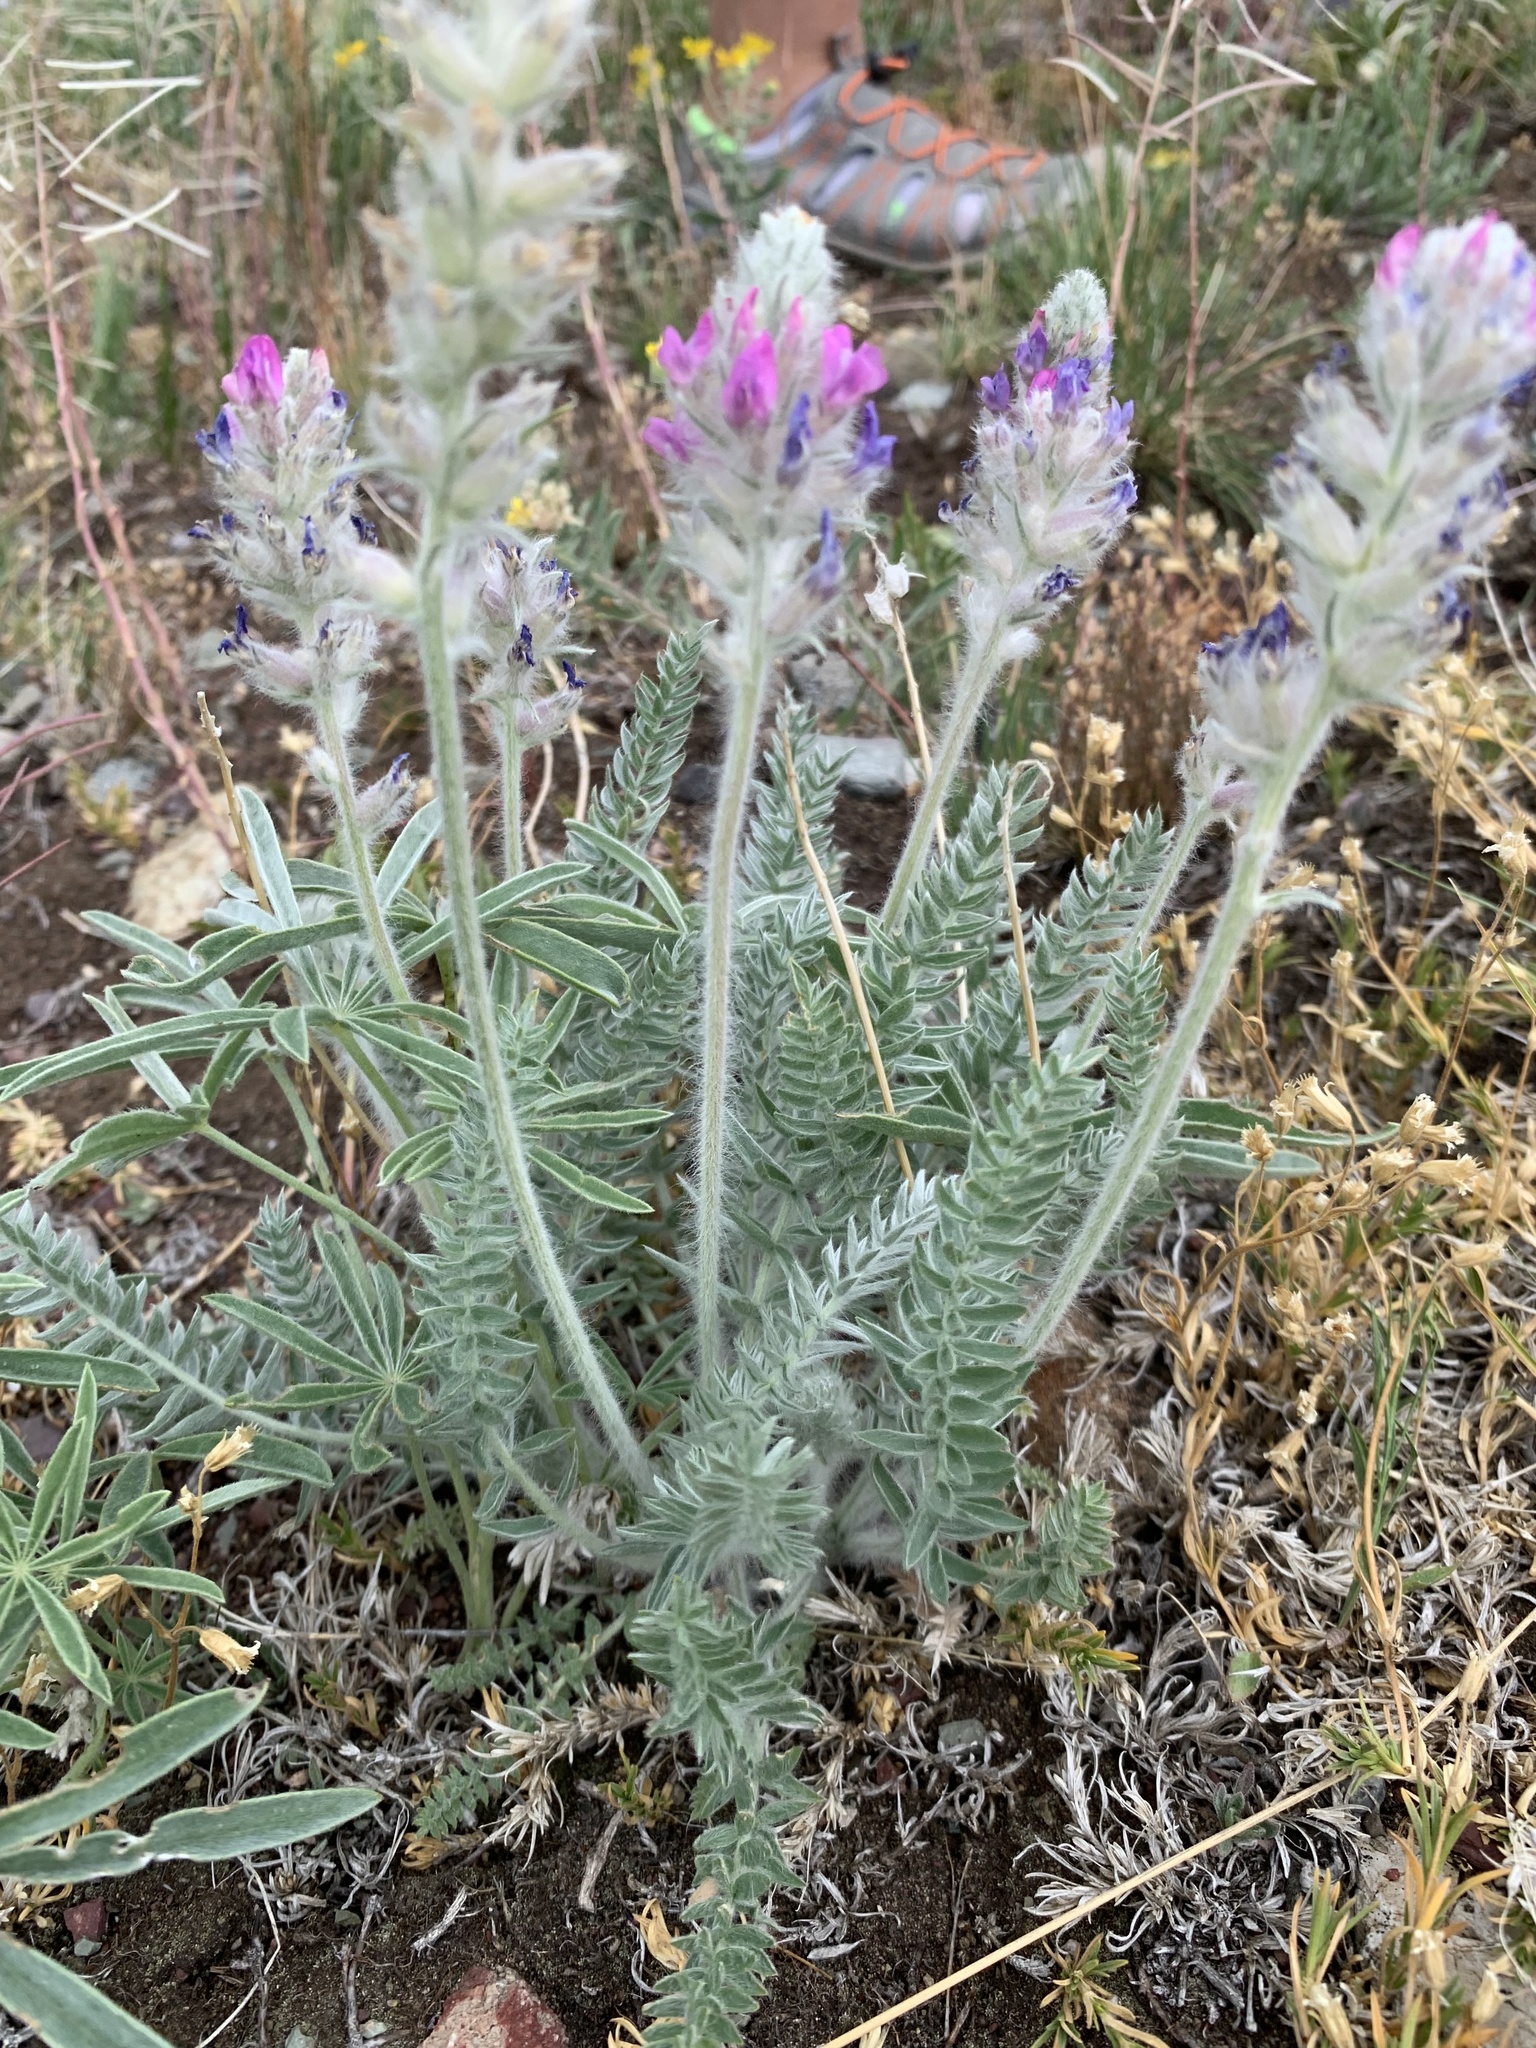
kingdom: Plantae
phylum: Tracheophyta
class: Magnoliopsida
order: Fabales
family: Fabaceae
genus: Oxytropis
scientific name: Oxytropis splendens
